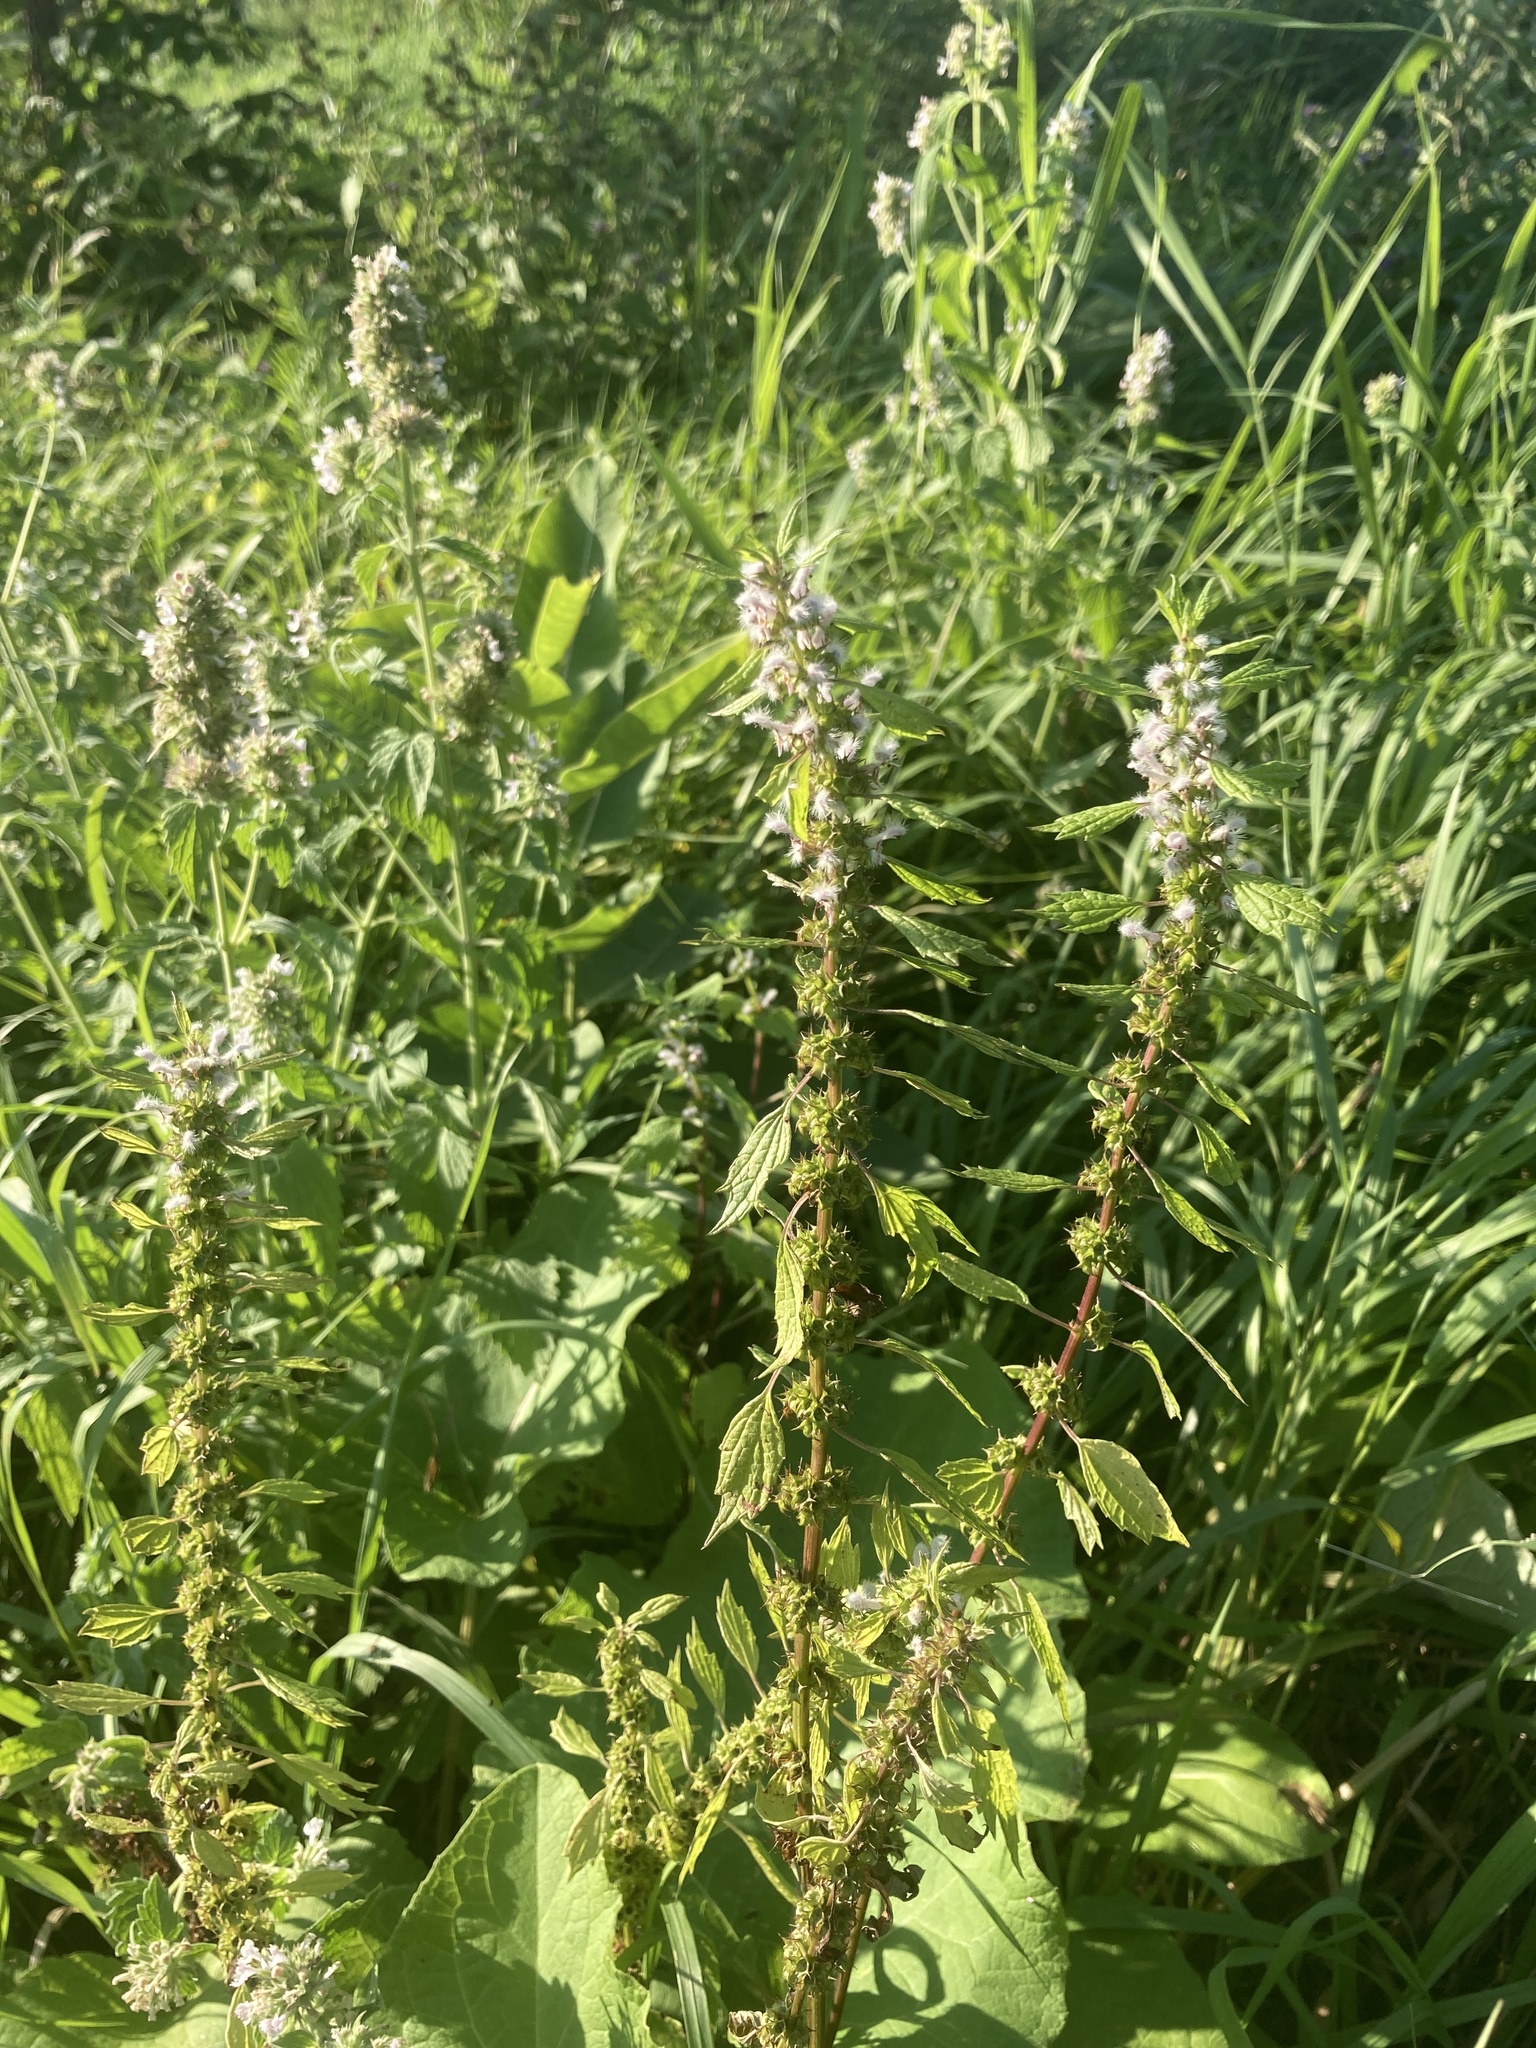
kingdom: Plantae
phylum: Tracheophyta
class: Magnoliopsida
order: Lamiales
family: Lamiaceae
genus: Leonurus
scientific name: Leonurus cardiaca
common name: Motherwort
